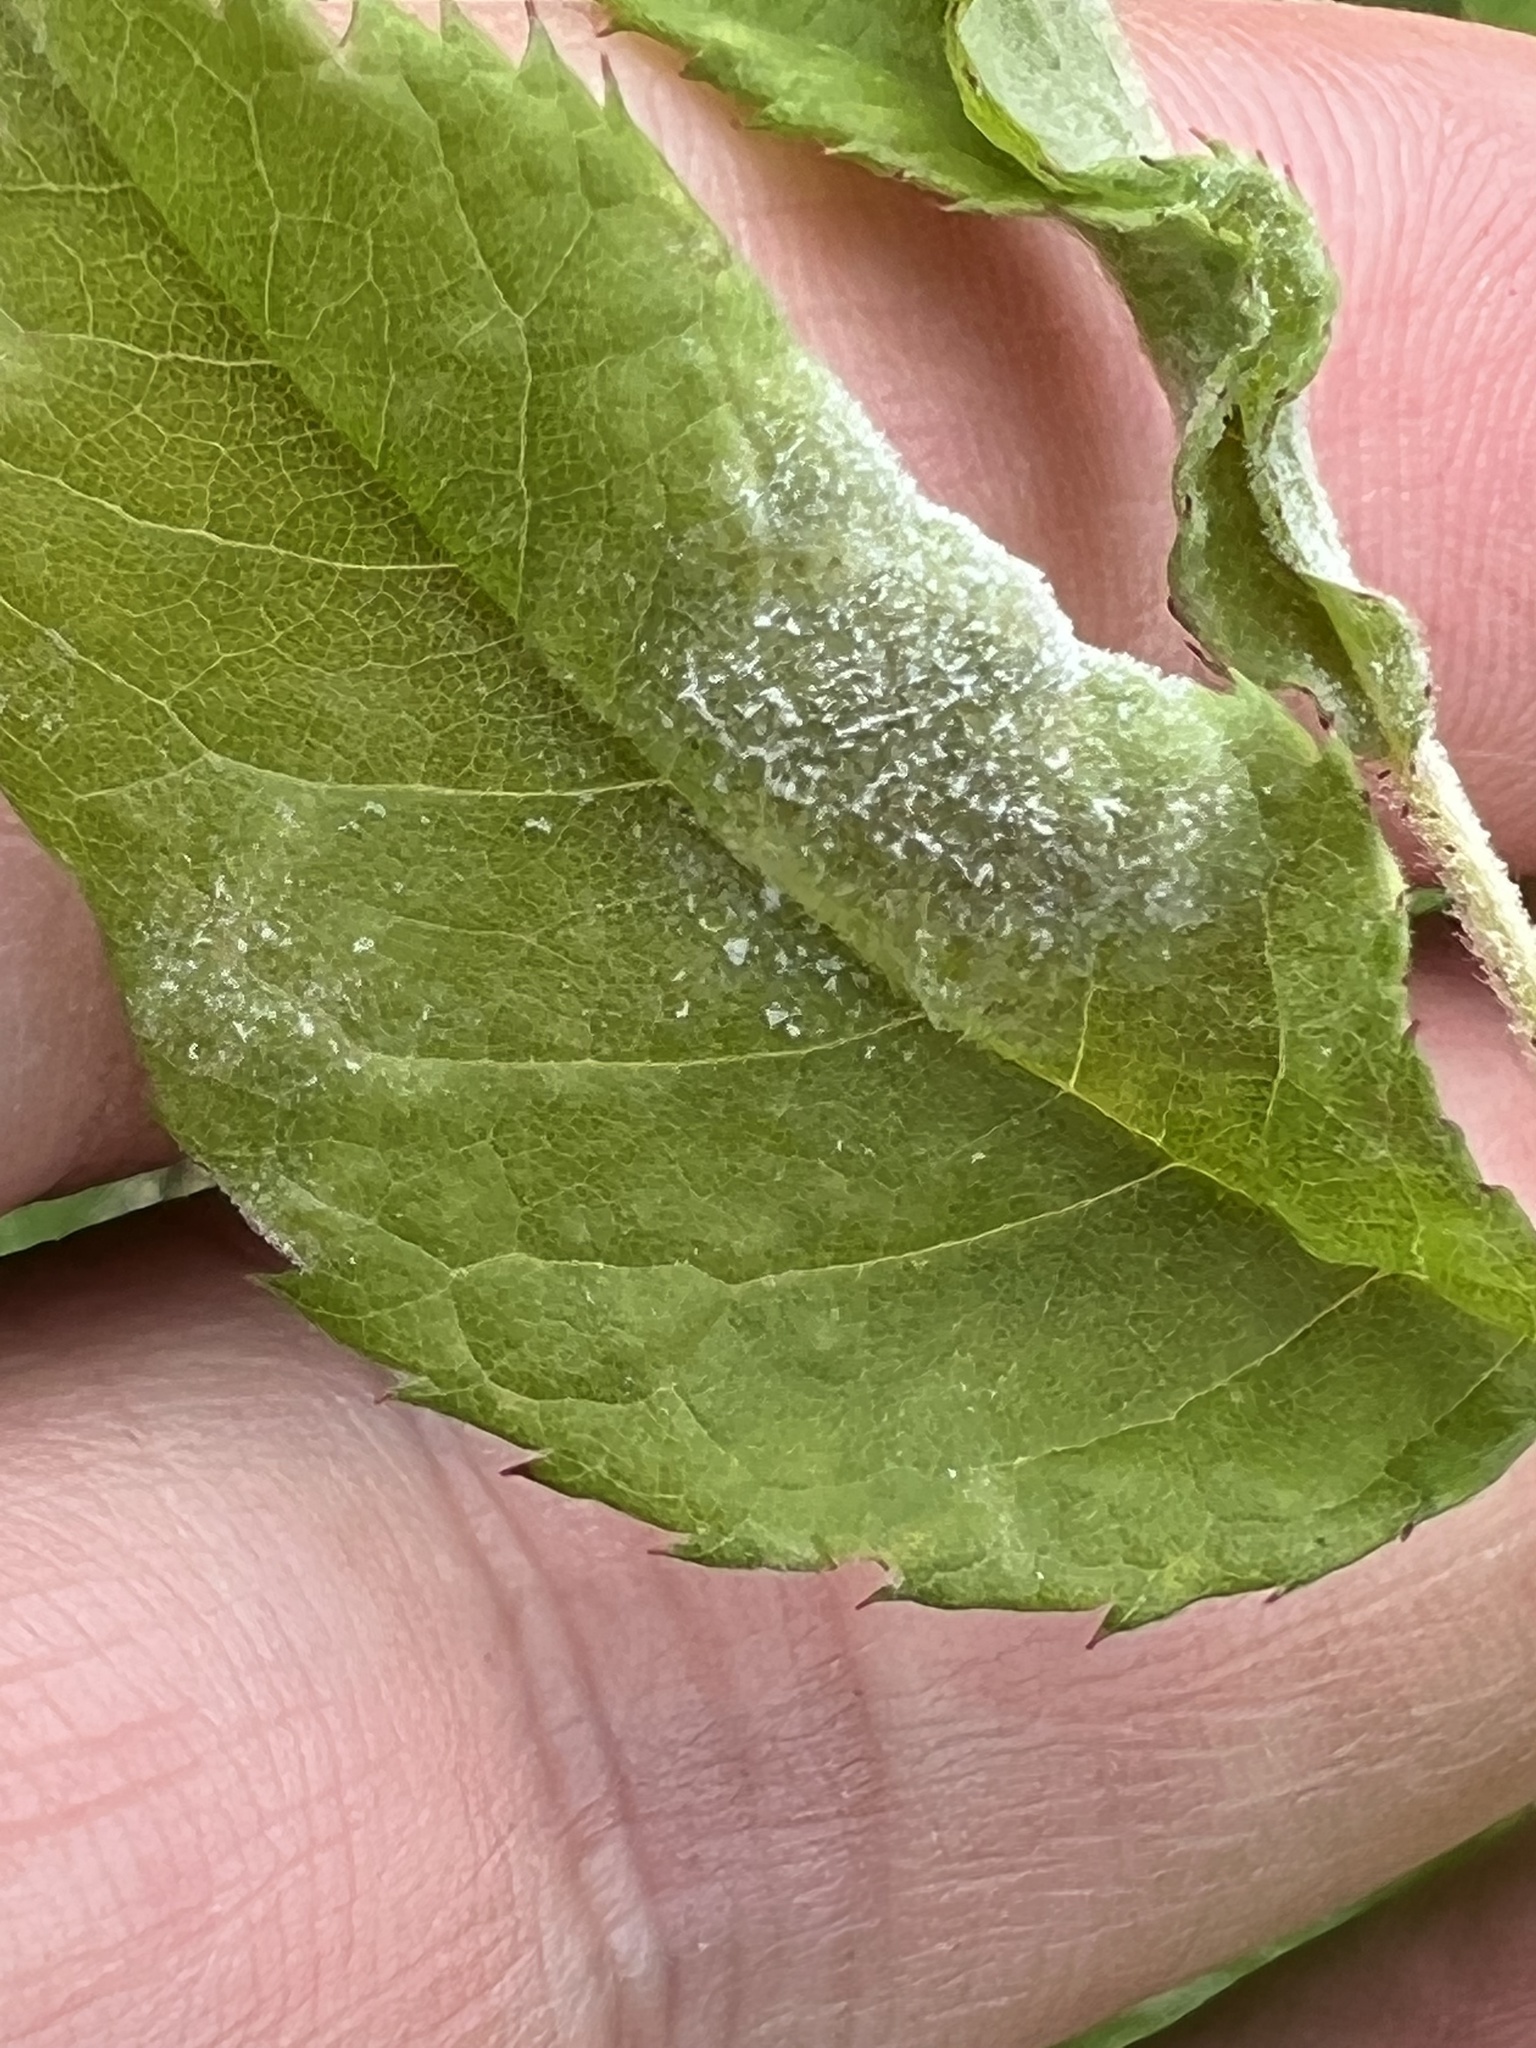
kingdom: Fungi
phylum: Ascomycota
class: Leotiomycetes
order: Helotiales
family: Erysiphaceae
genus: Podosphaera
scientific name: Podosphaera pannosa
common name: Rose mildew
